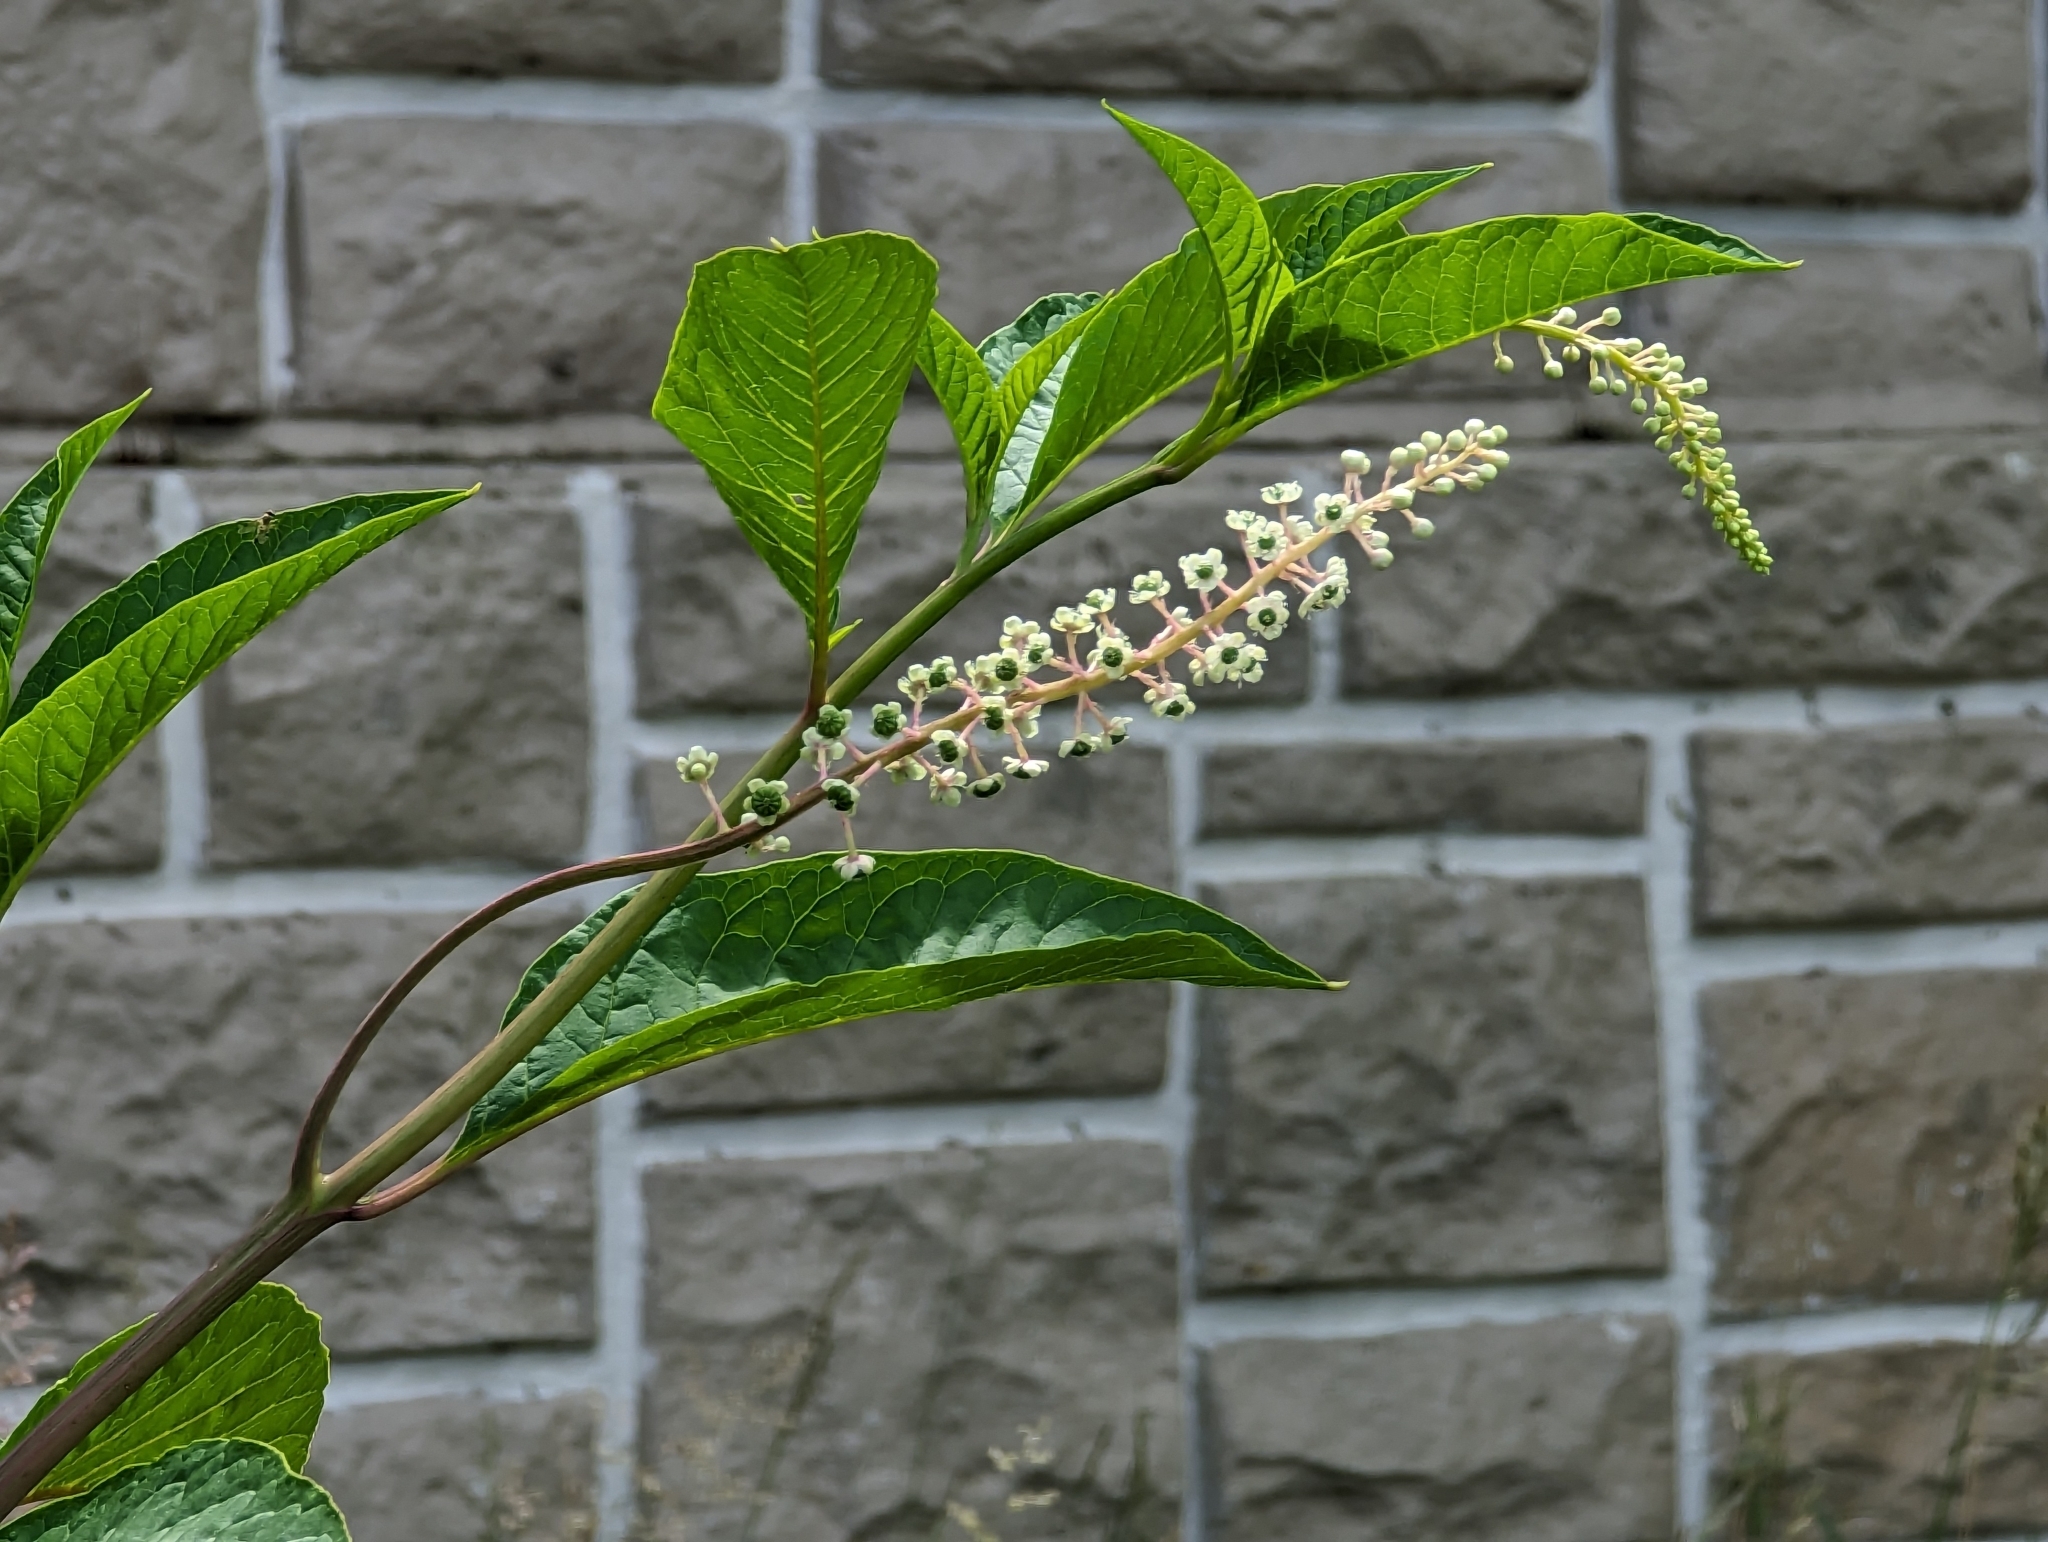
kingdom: Plantae
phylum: Tracheophyta
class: Magnoliopsida
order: Caryophyllales
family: Phytolaccaceae
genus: Phytolacca
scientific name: Phytolacca americana
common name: American pokeweed
